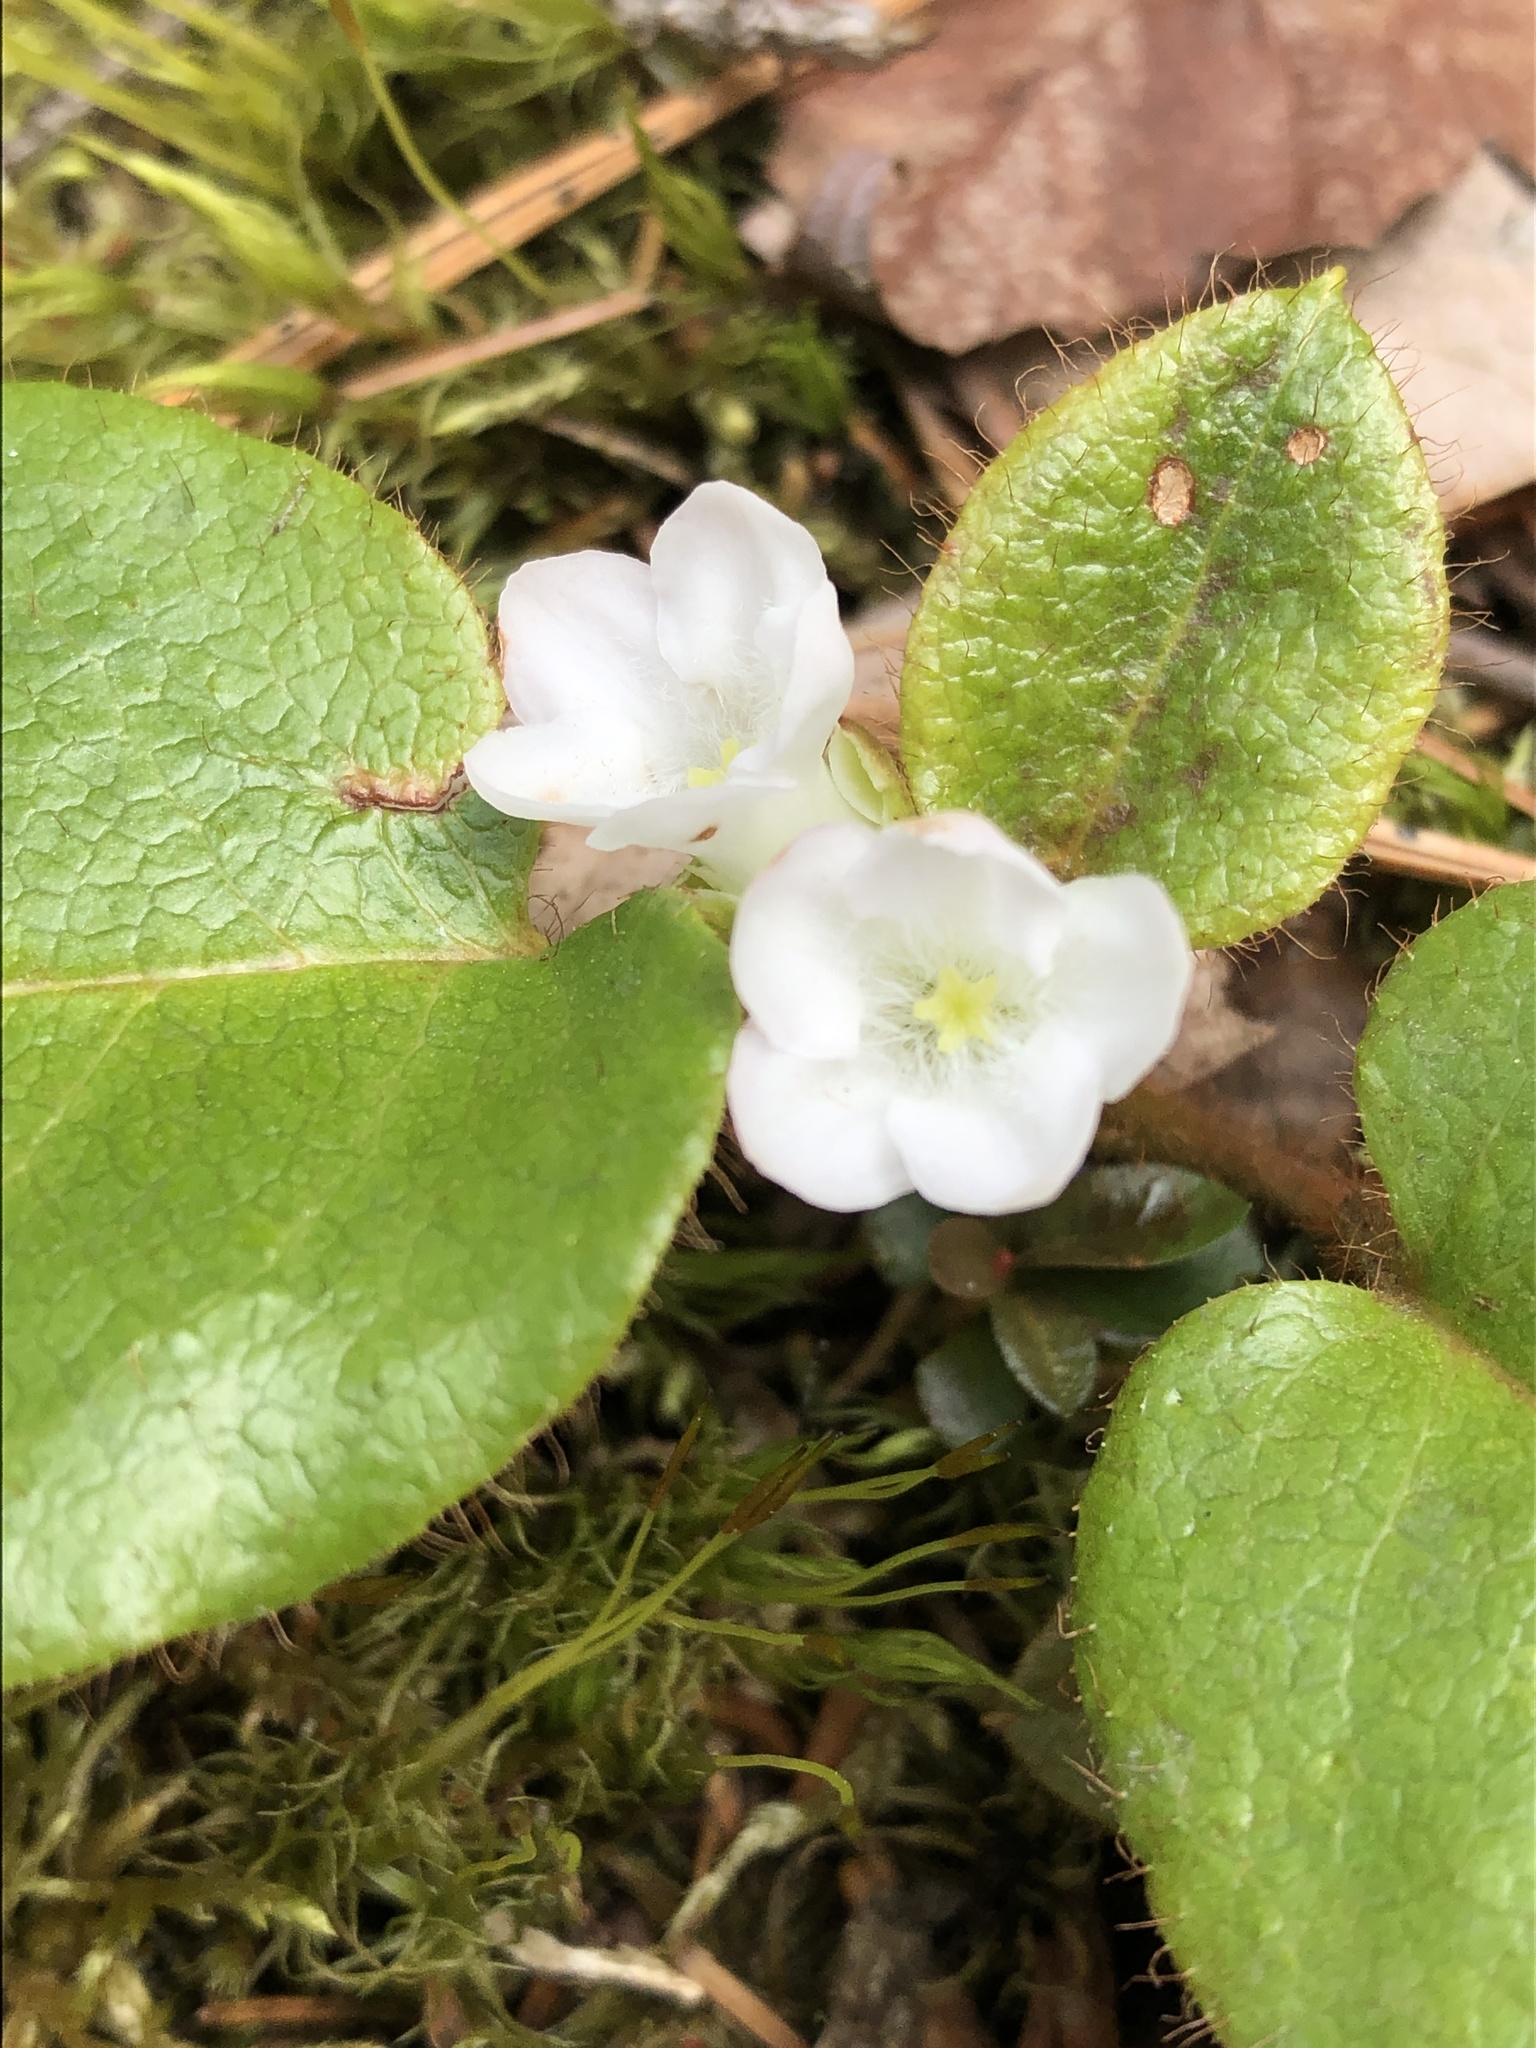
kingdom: Plantae
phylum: Tracheophyta
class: Magnoliopsida
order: Ericales
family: Ericaceae
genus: Epigaea
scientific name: Epigaea repens
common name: Gravelroot
